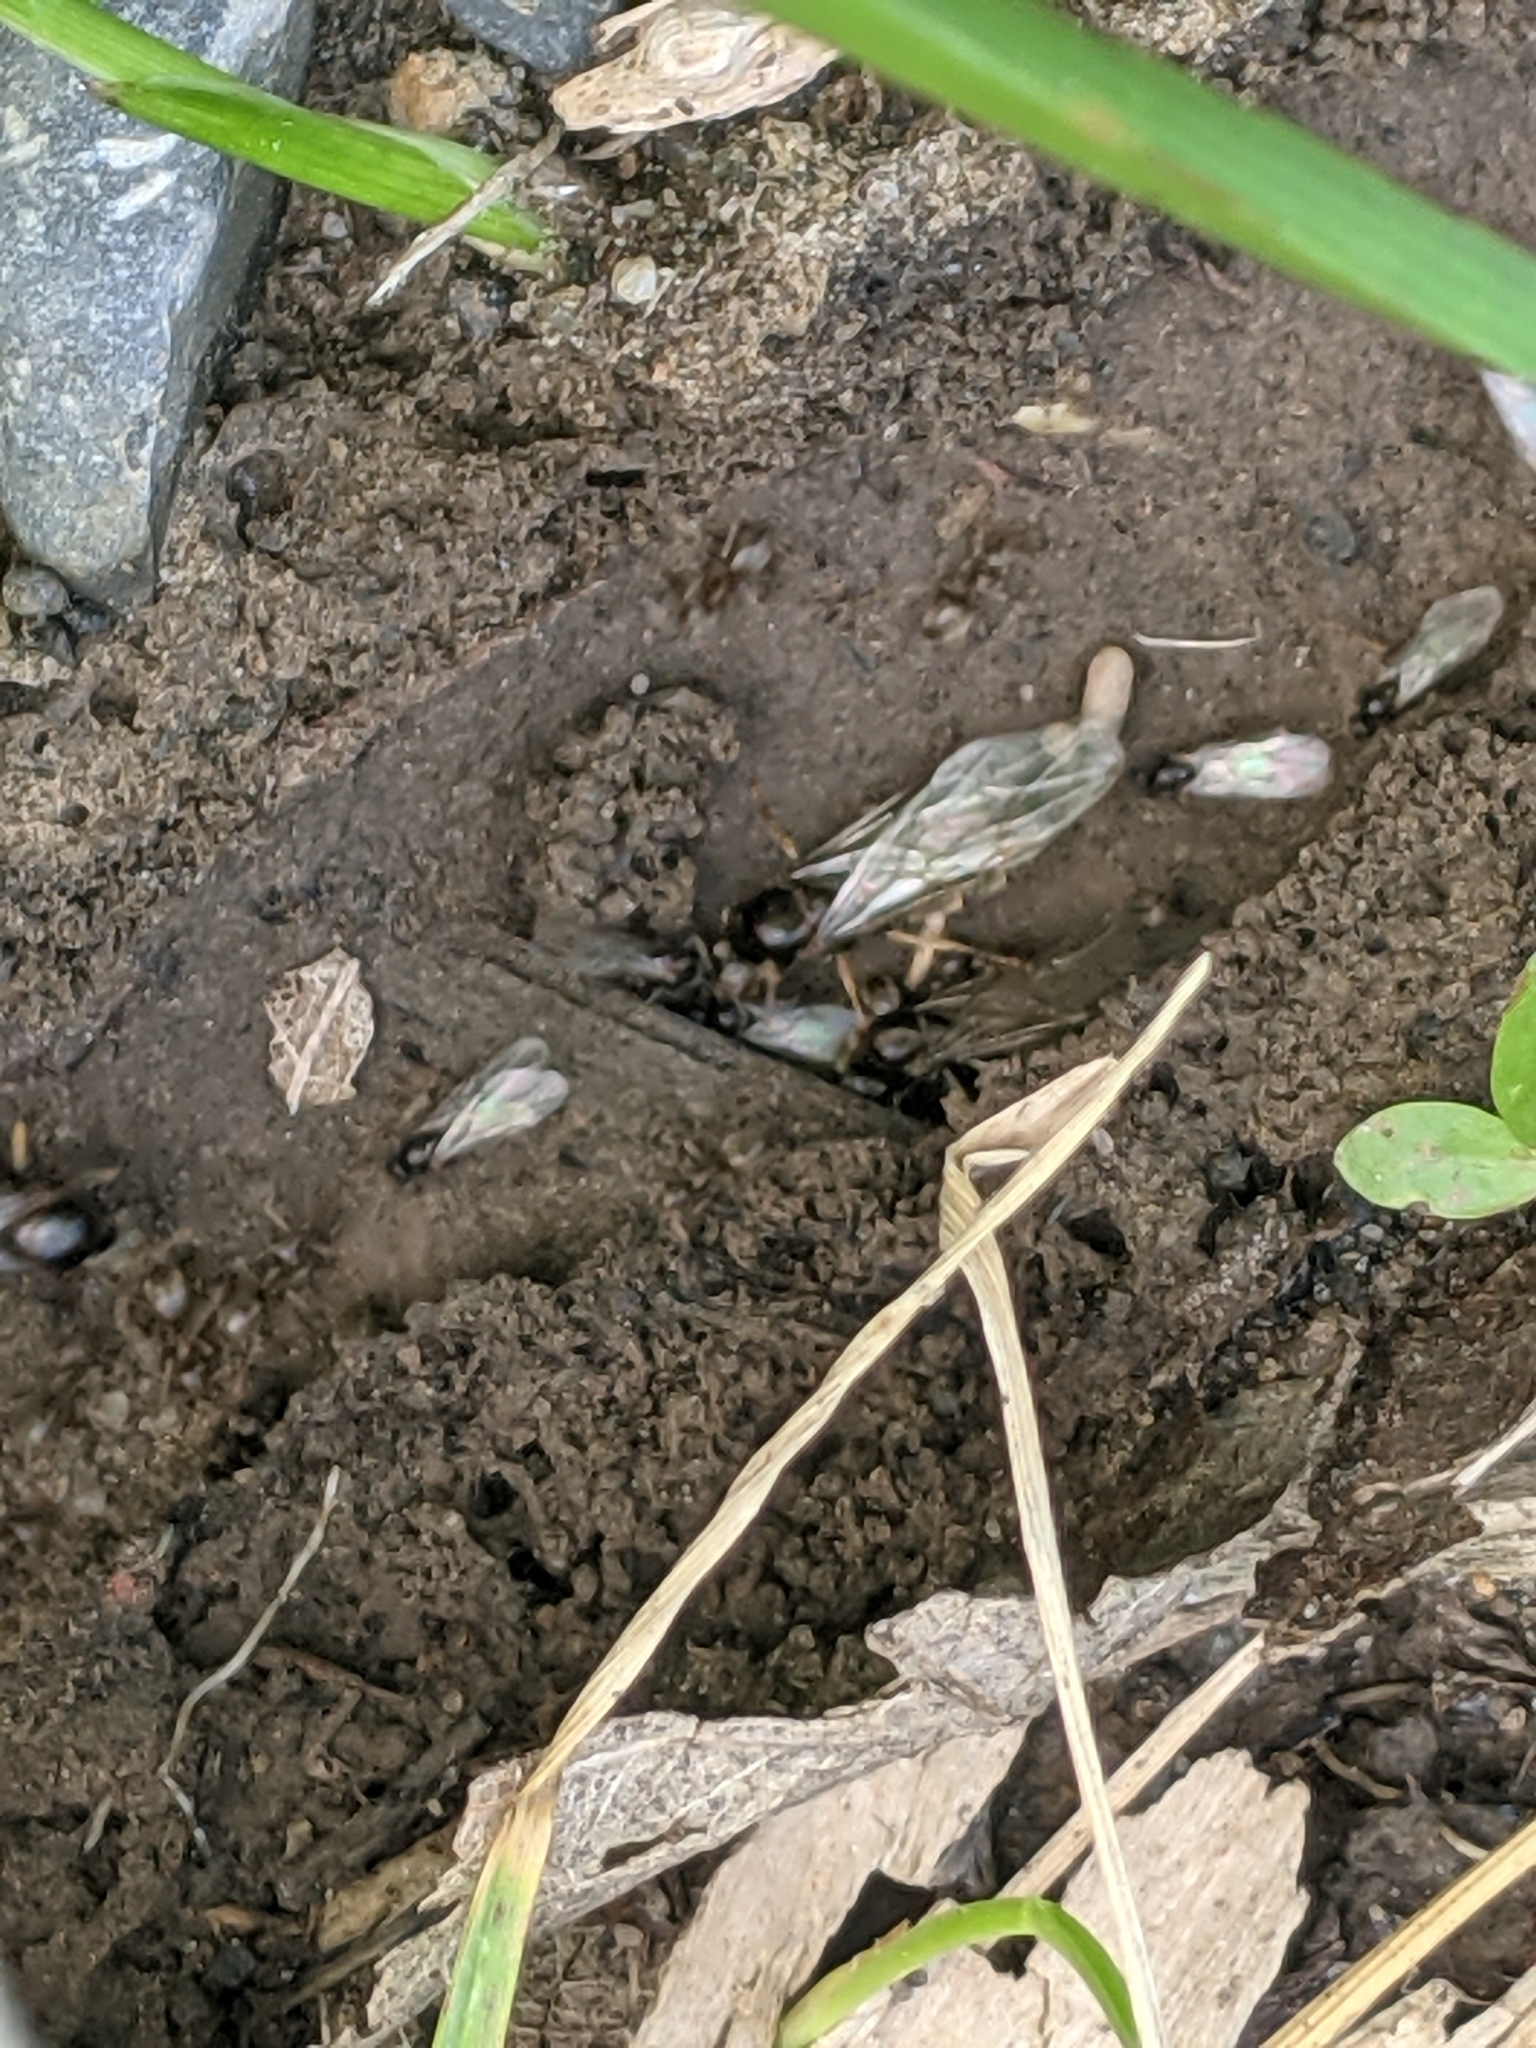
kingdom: Animalia
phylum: Arthropoda
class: Insecta
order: Hymenoptera
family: Formicidae
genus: Lasius
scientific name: Lasius
